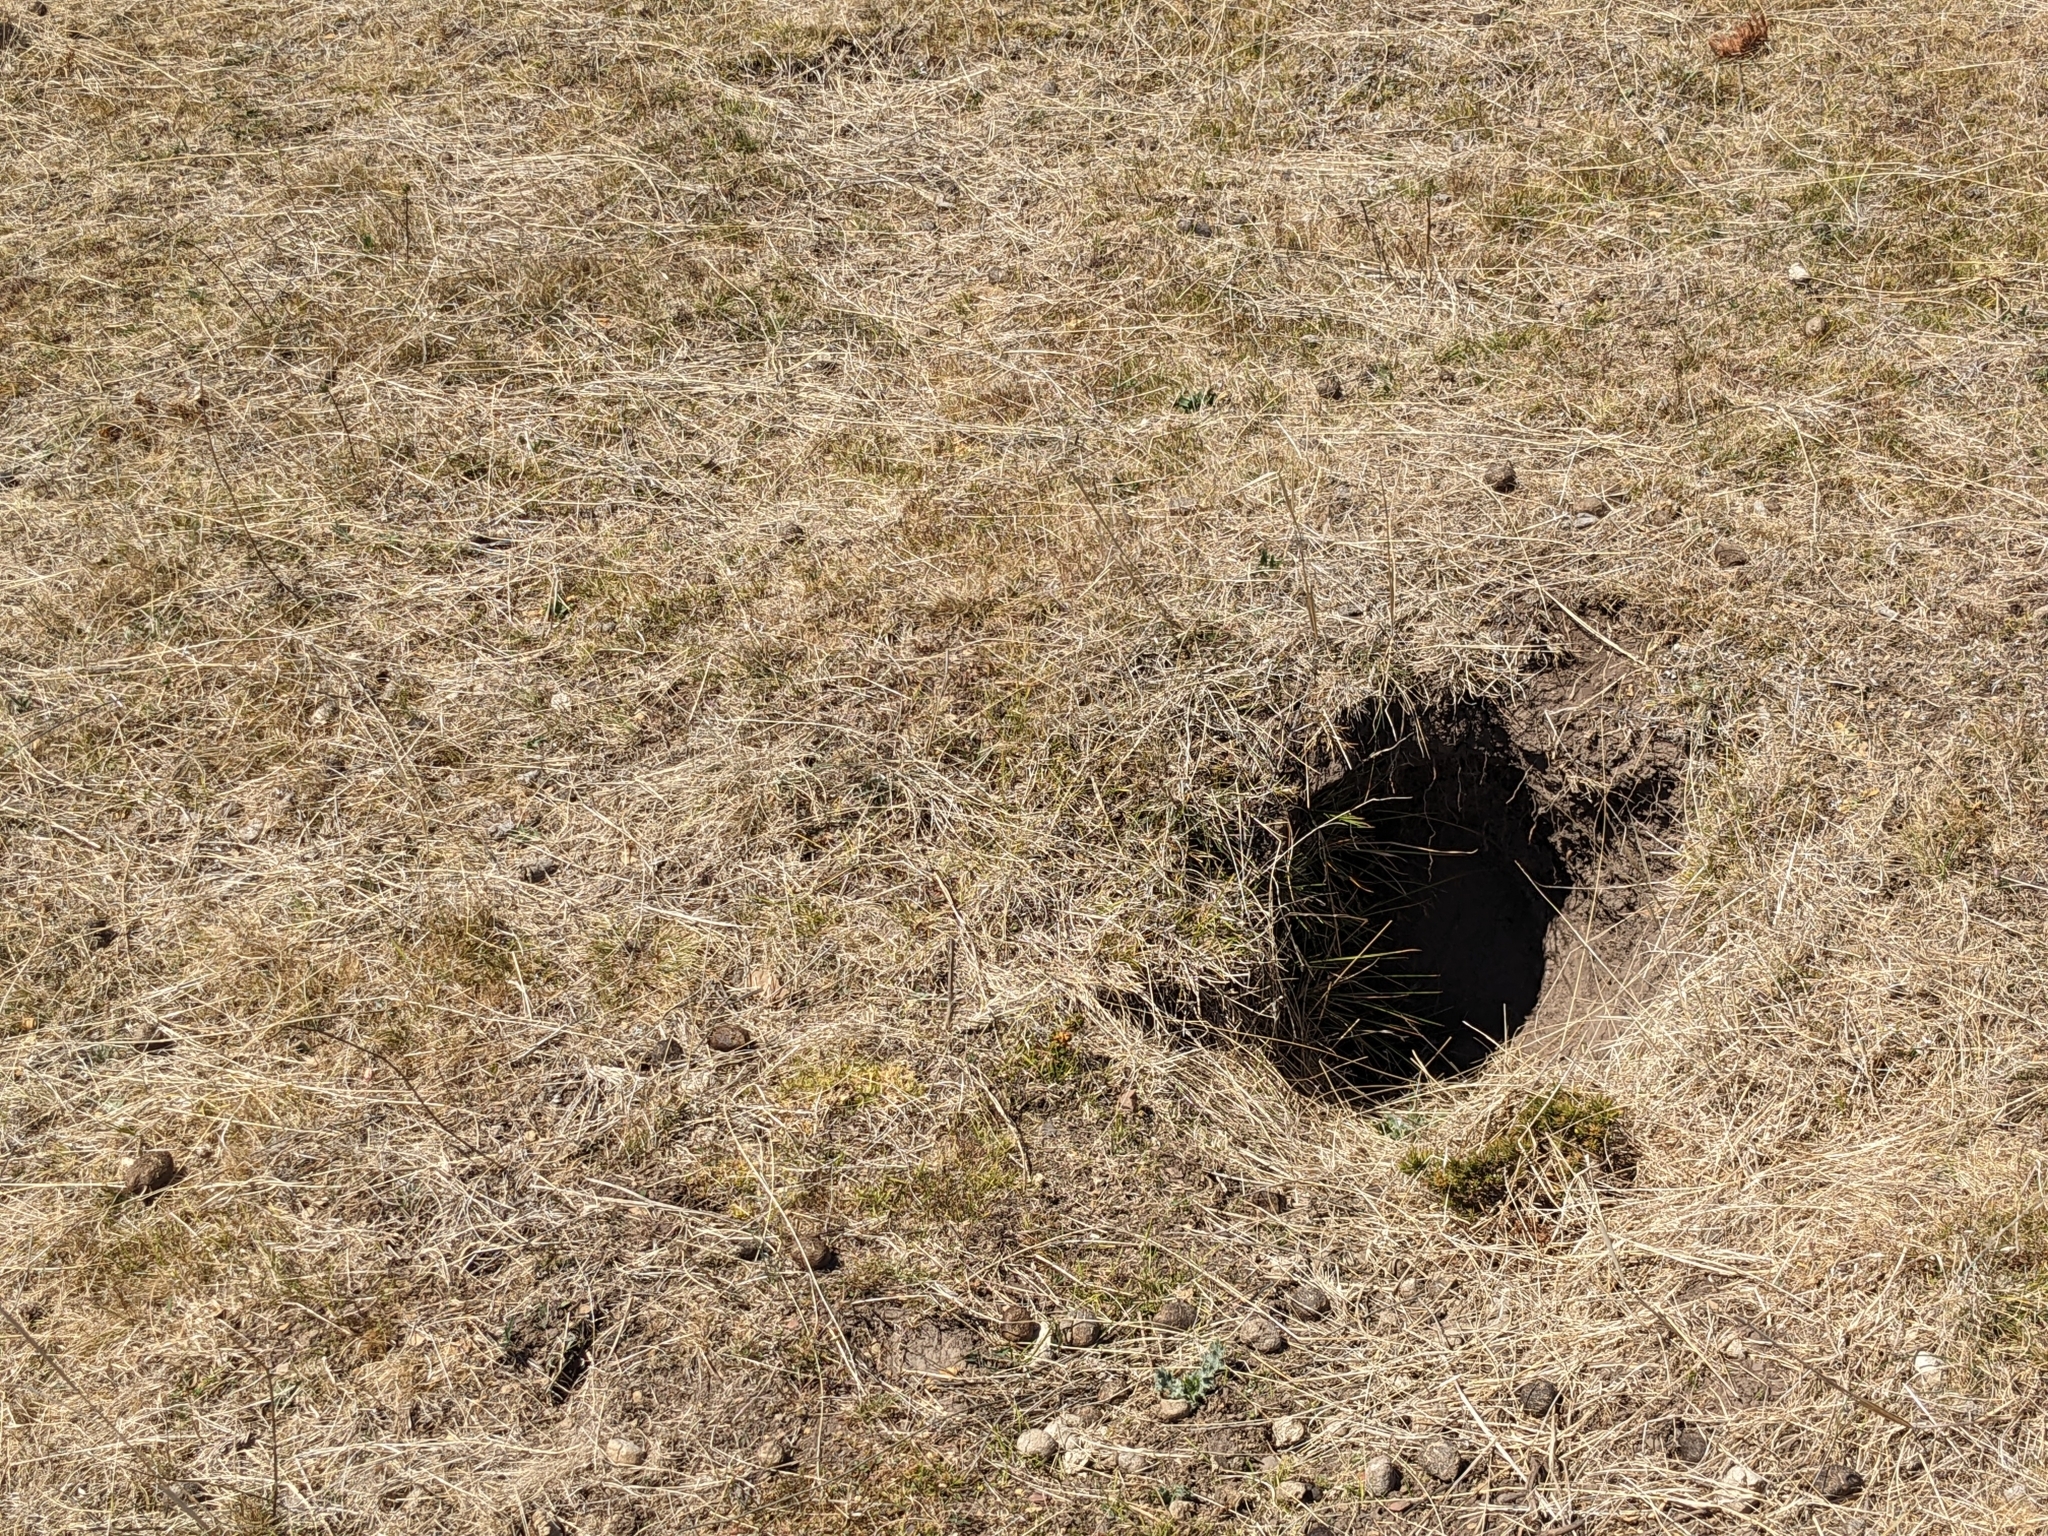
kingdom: Animalia
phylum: Chordata
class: Mammalia
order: Diprotodontia
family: Vombatidae
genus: Vombatus
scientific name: Vombatus ursinus
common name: Common wombat
